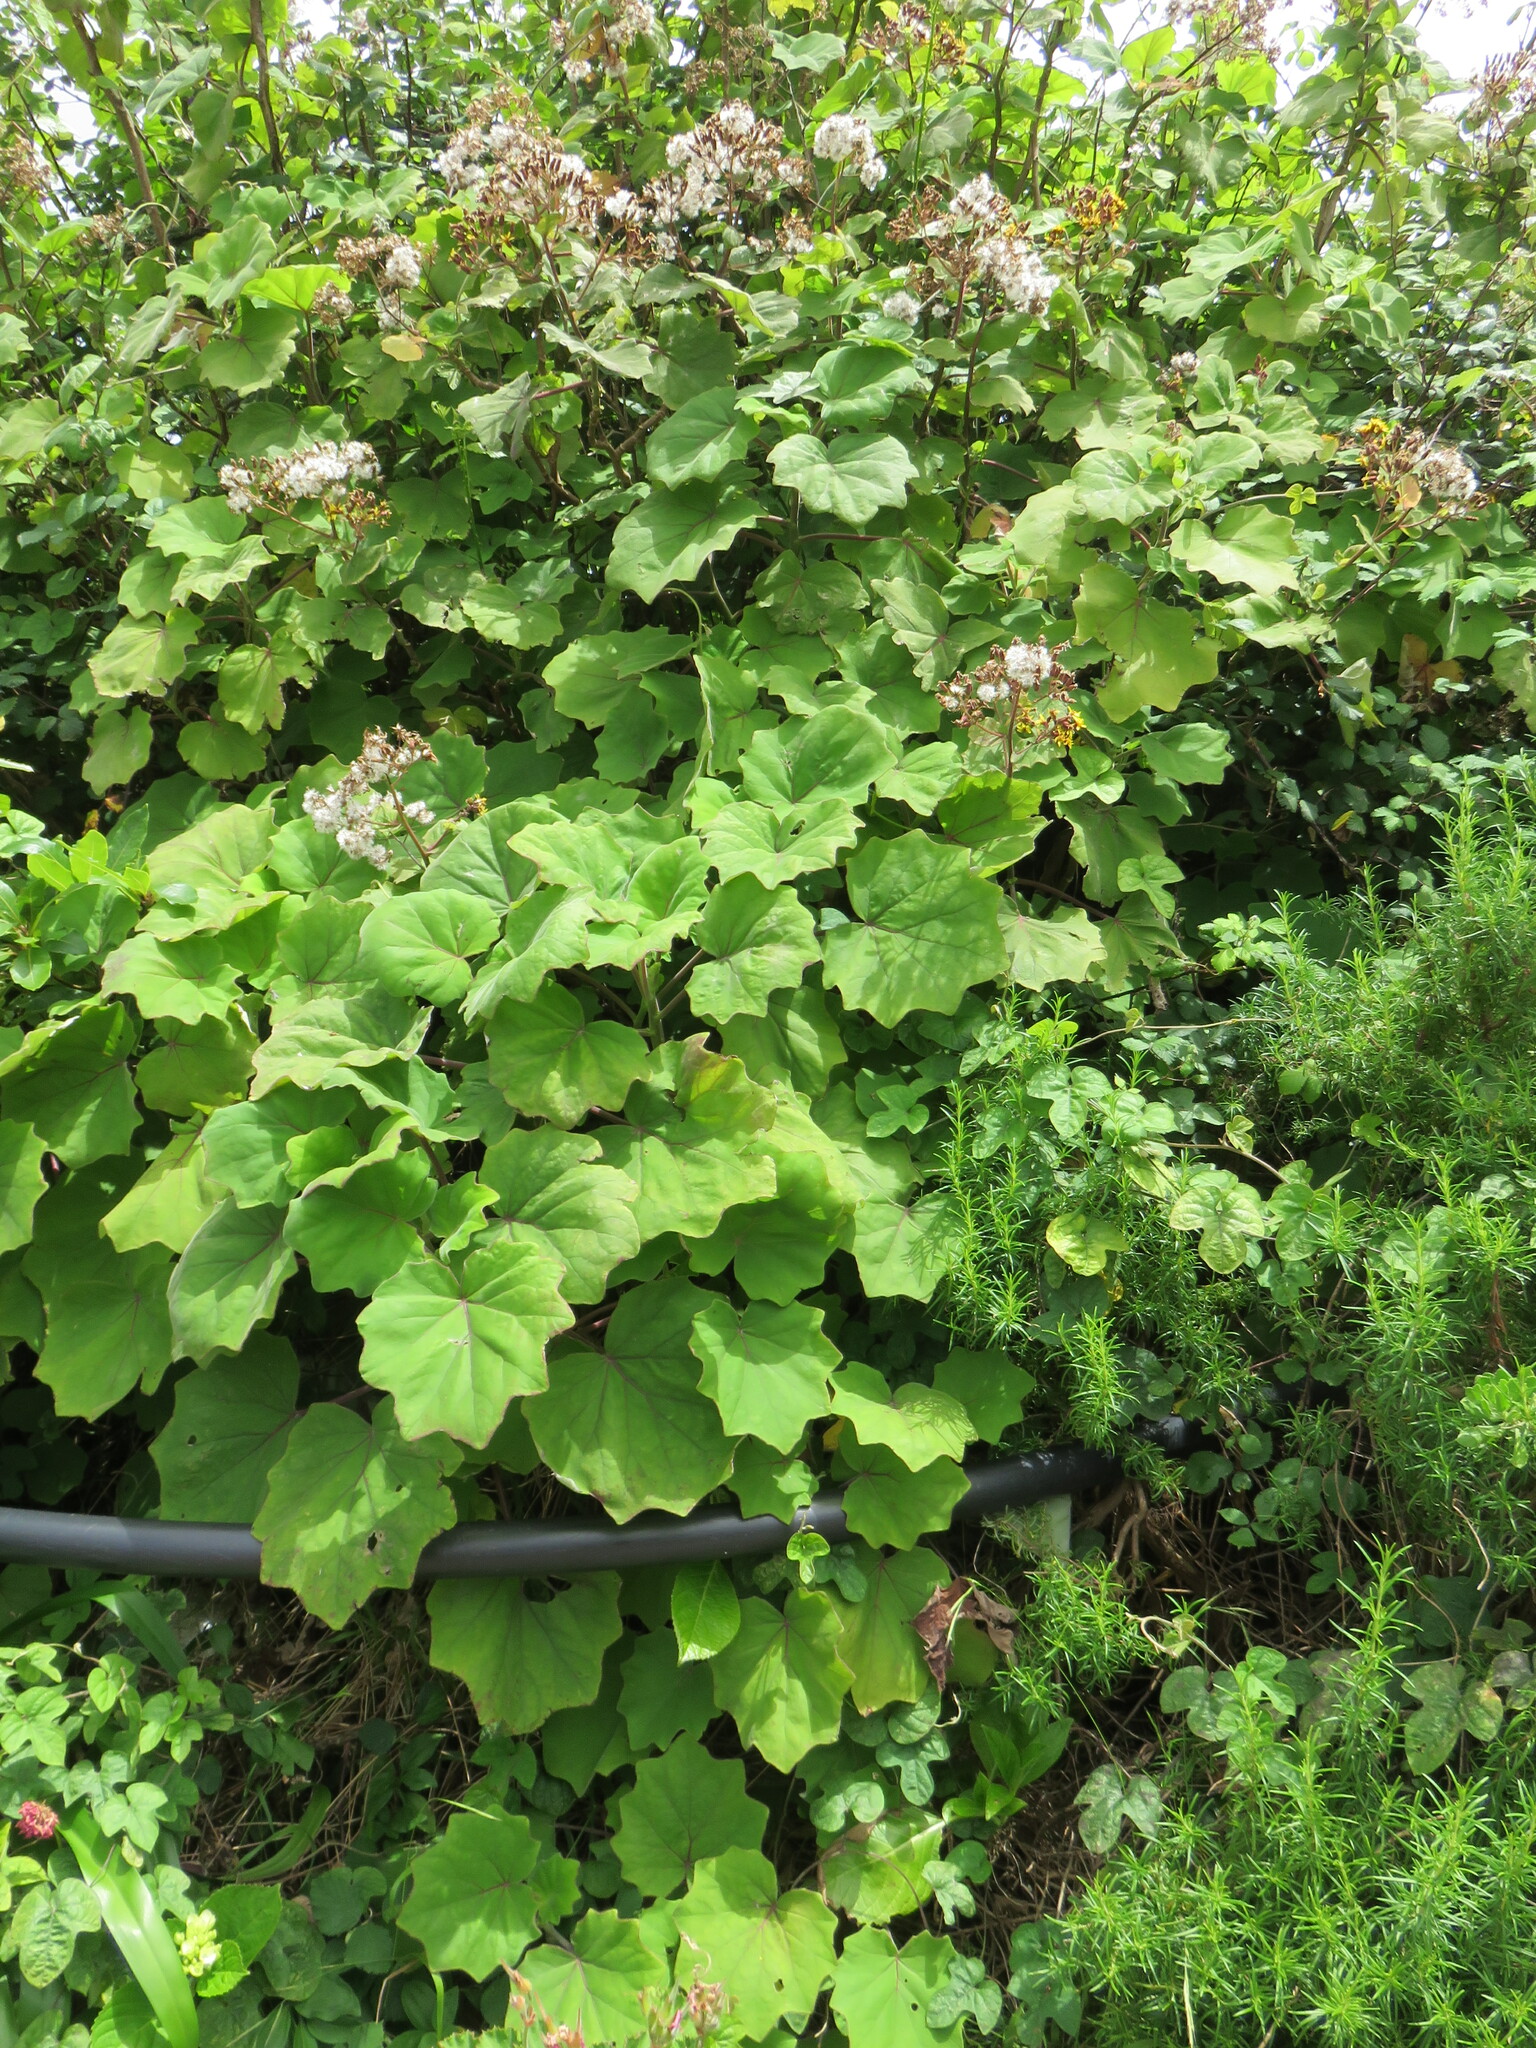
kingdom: Plantae
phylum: Tracheophyta
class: Magnoliopsida
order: Asterales
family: Asteraceae
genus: Roldana
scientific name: Roldana petasitis
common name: California-geranium
